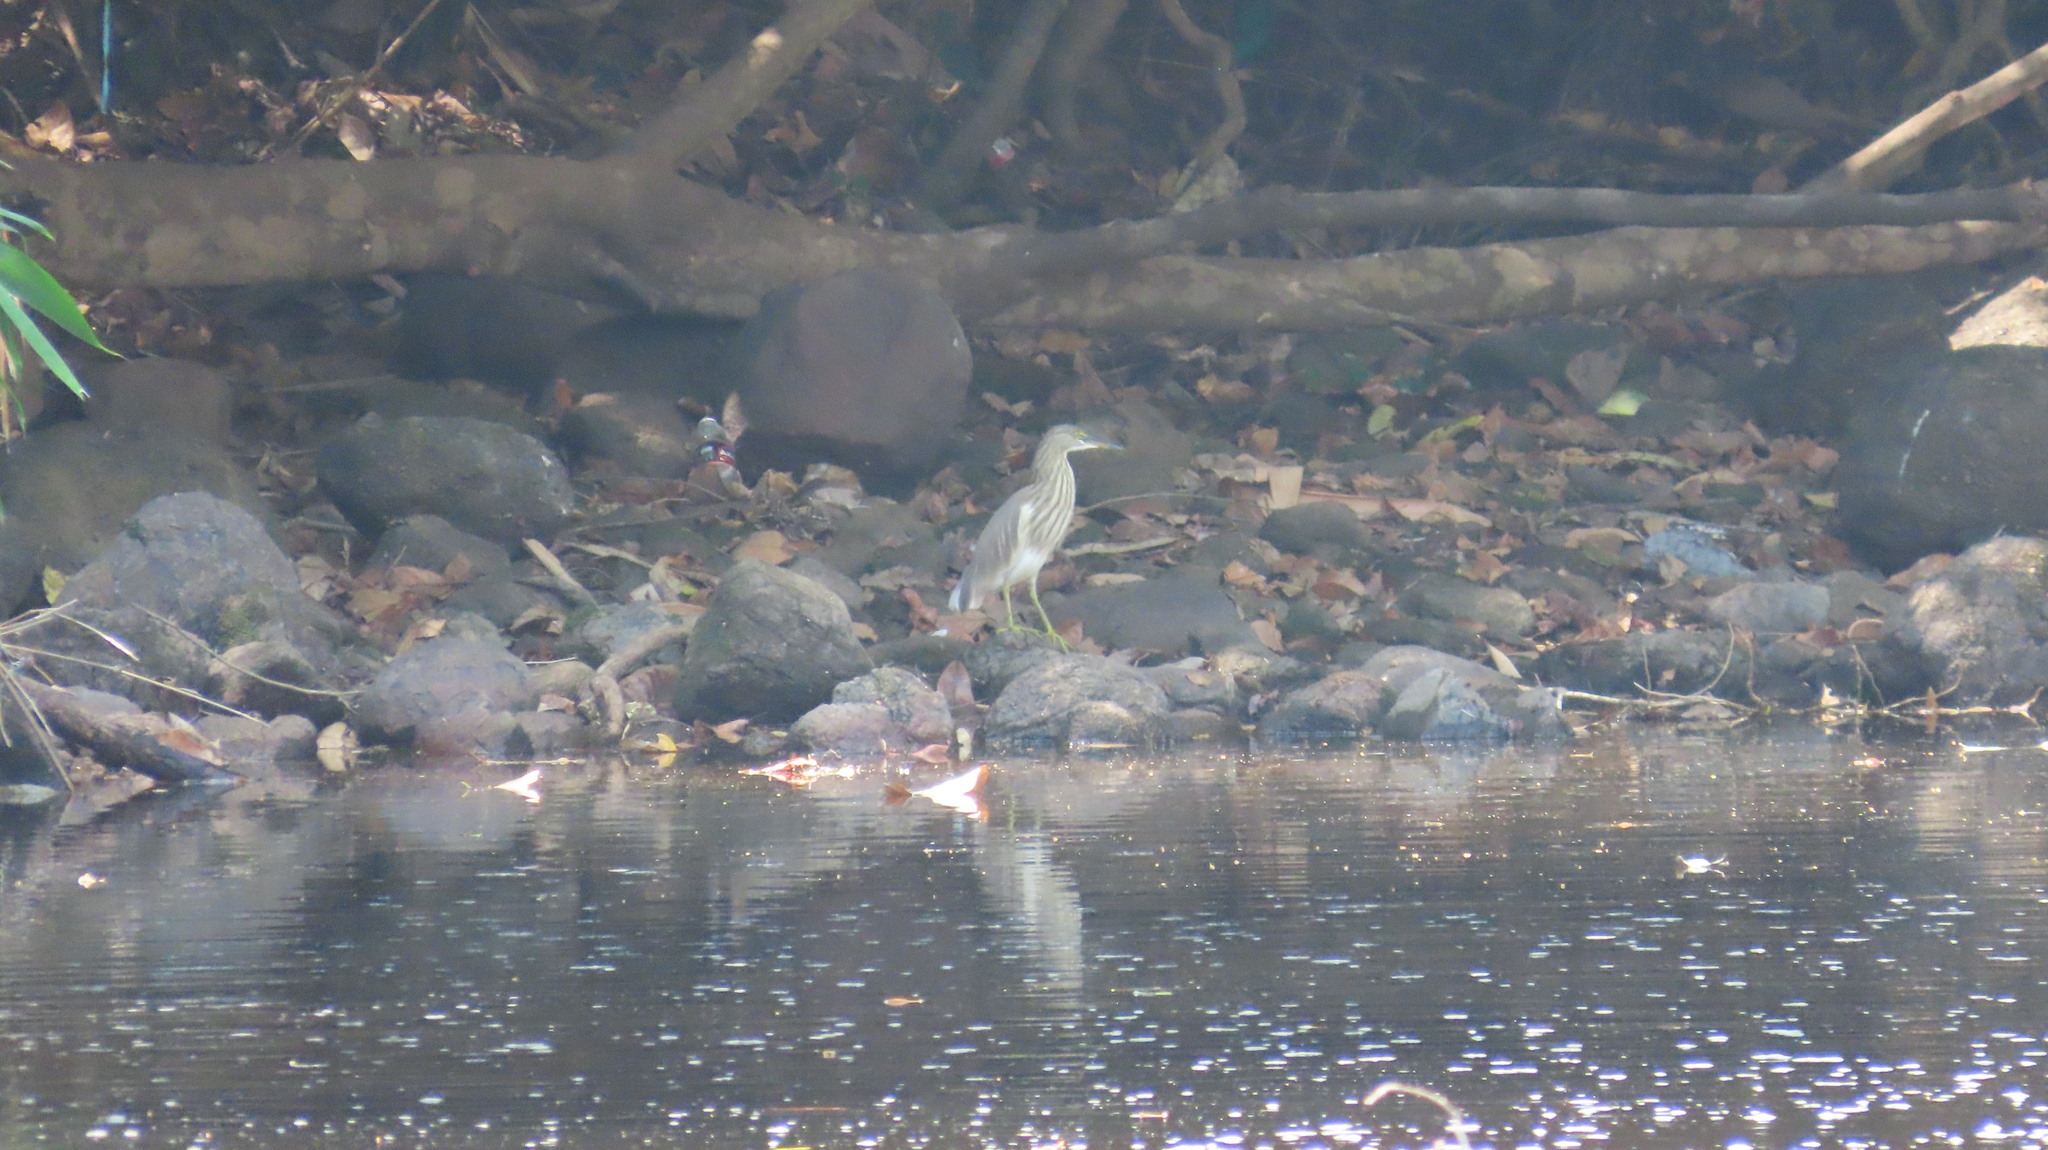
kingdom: Animalia
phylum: Chordata
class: Aves
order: Pelecaniformes
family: Ardeidae
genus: Ardeola
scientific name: Ardeola grayii
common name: Indian pond heron
